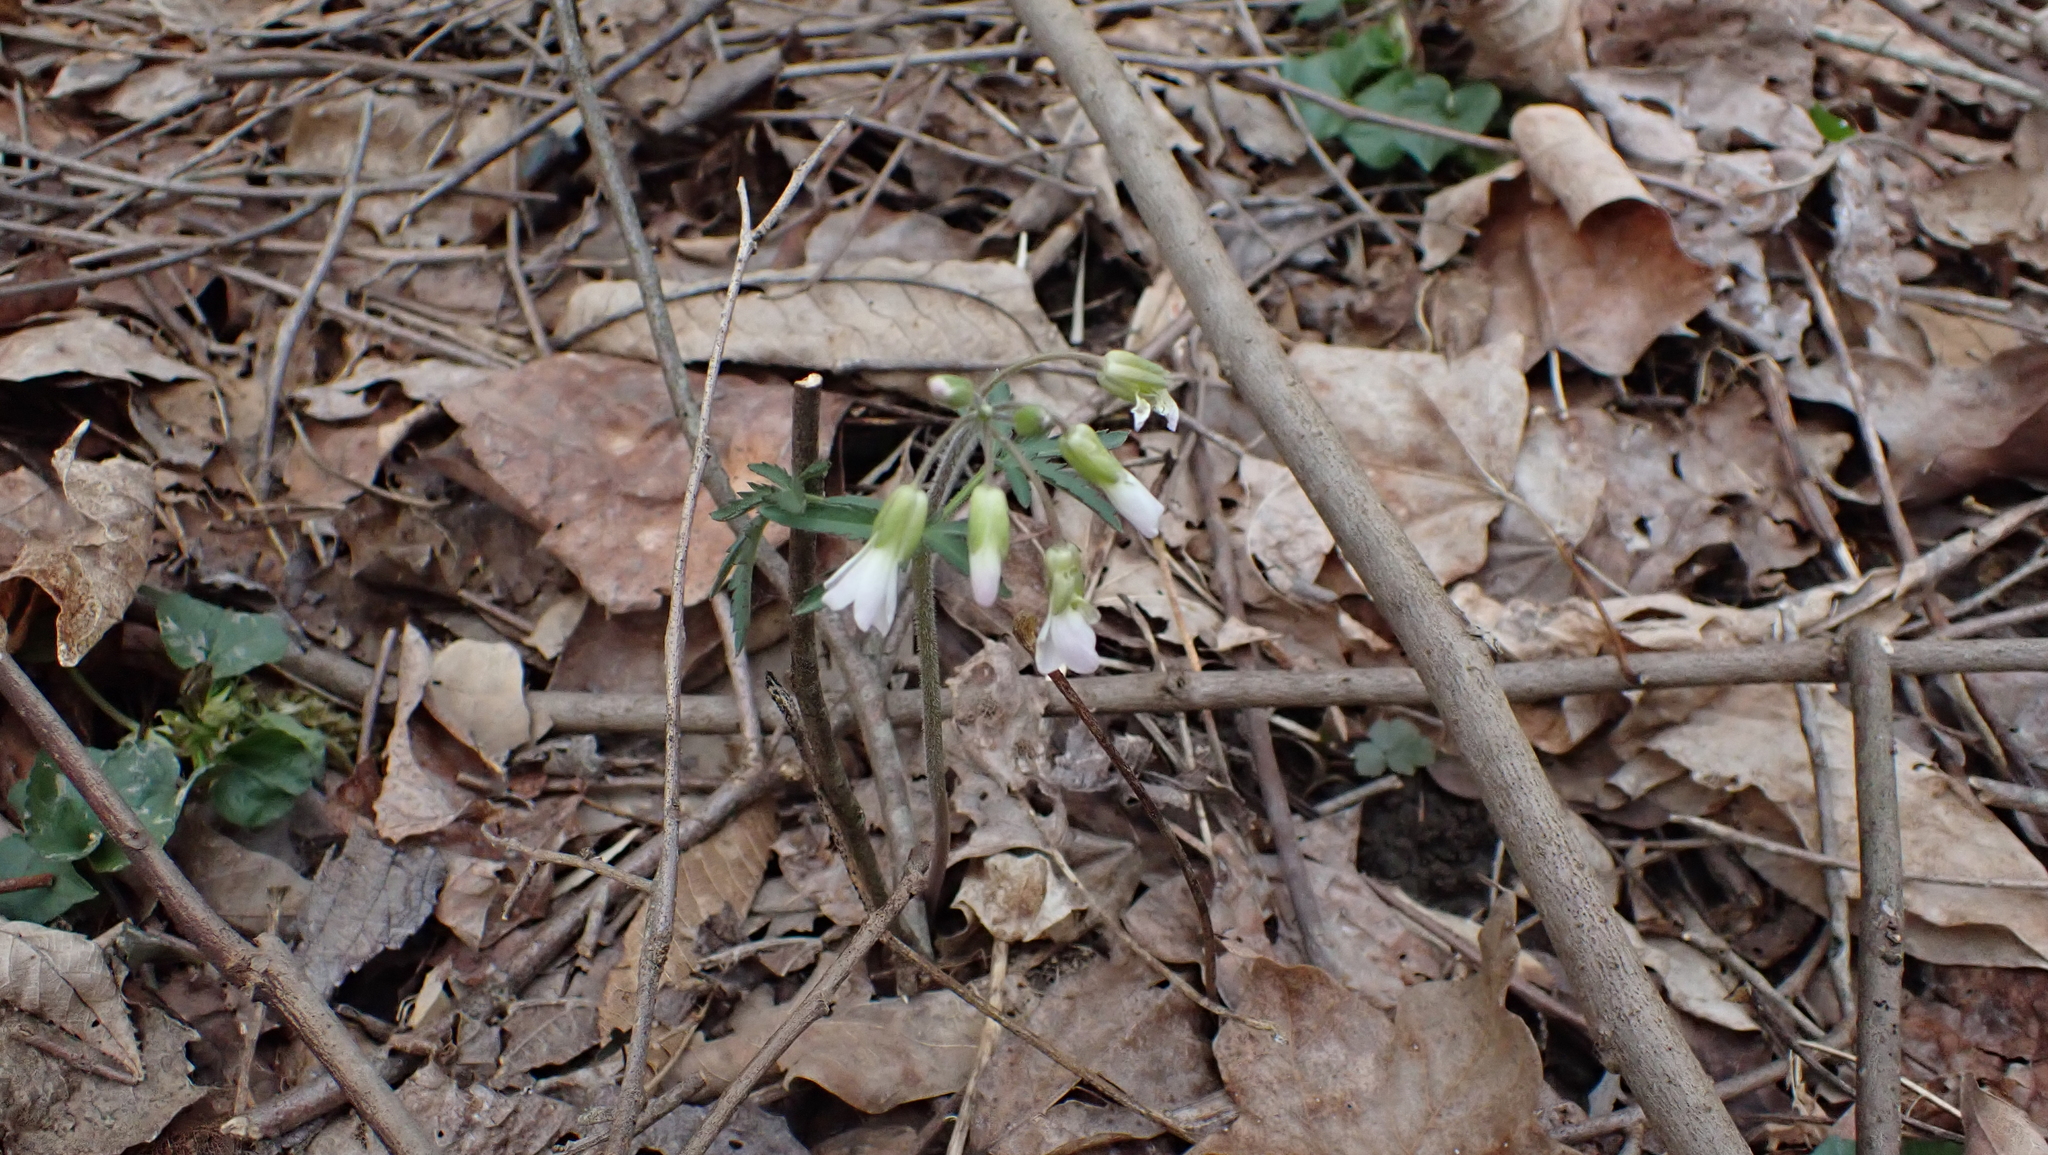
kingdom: Plantae
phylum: Tracheophyta
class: Magnoliopsida
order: Brassicales
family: Brassicaceae
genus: Cardamine
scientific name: Cardamine concatenata
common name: Cut-leaf toothcup
